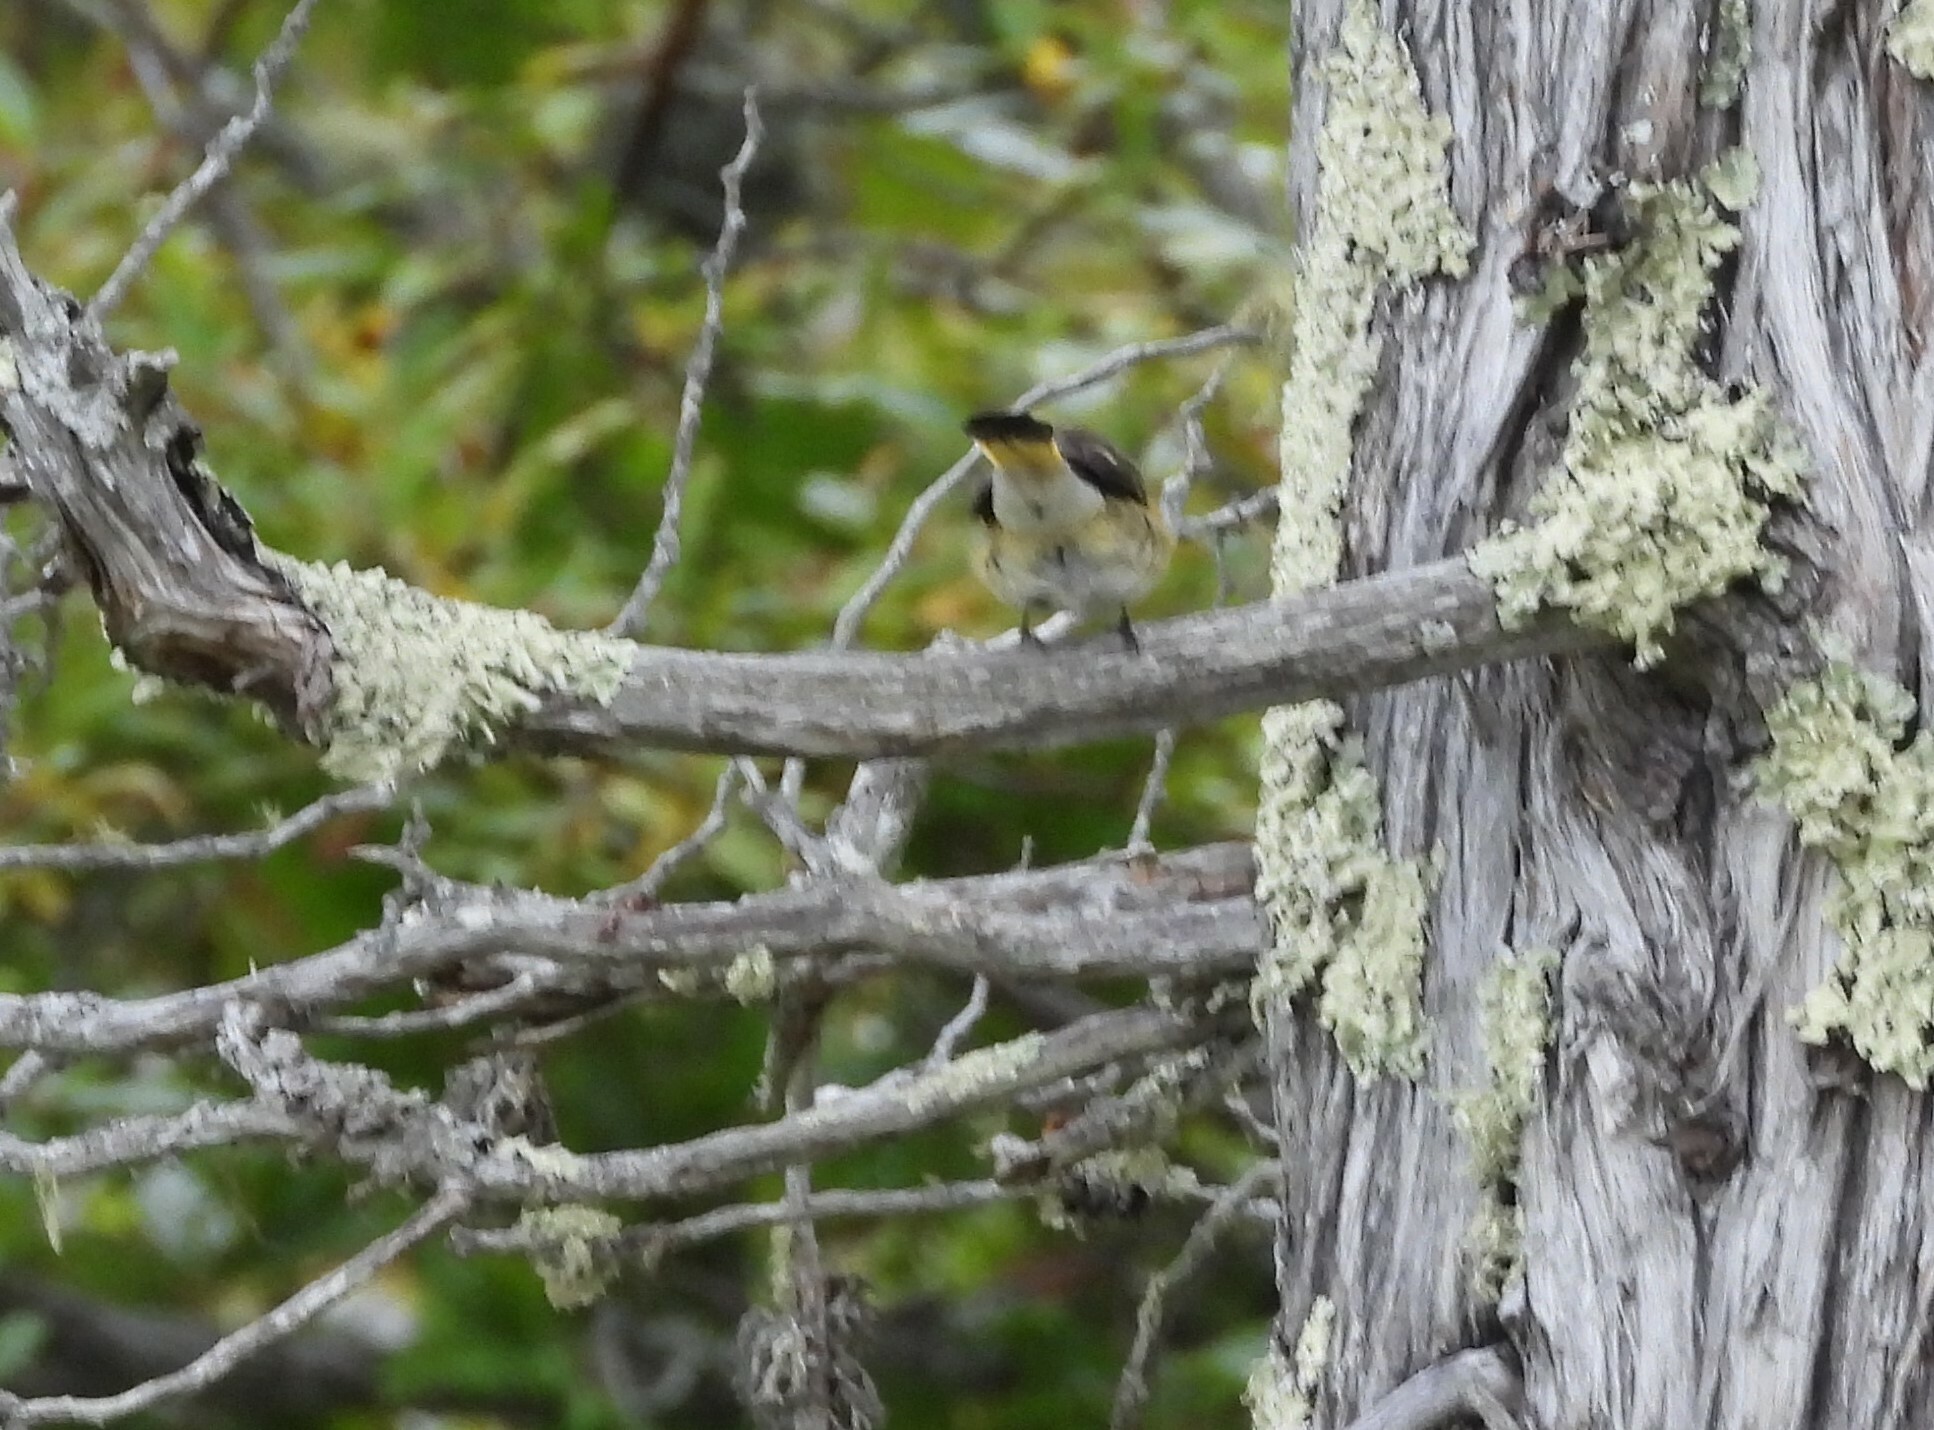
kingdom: Animalia
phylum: Chordata
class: Aves
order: Passeriformes
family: Parulidae
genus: Setophaga
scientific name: Setophaga ruticilla
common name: American redstart
